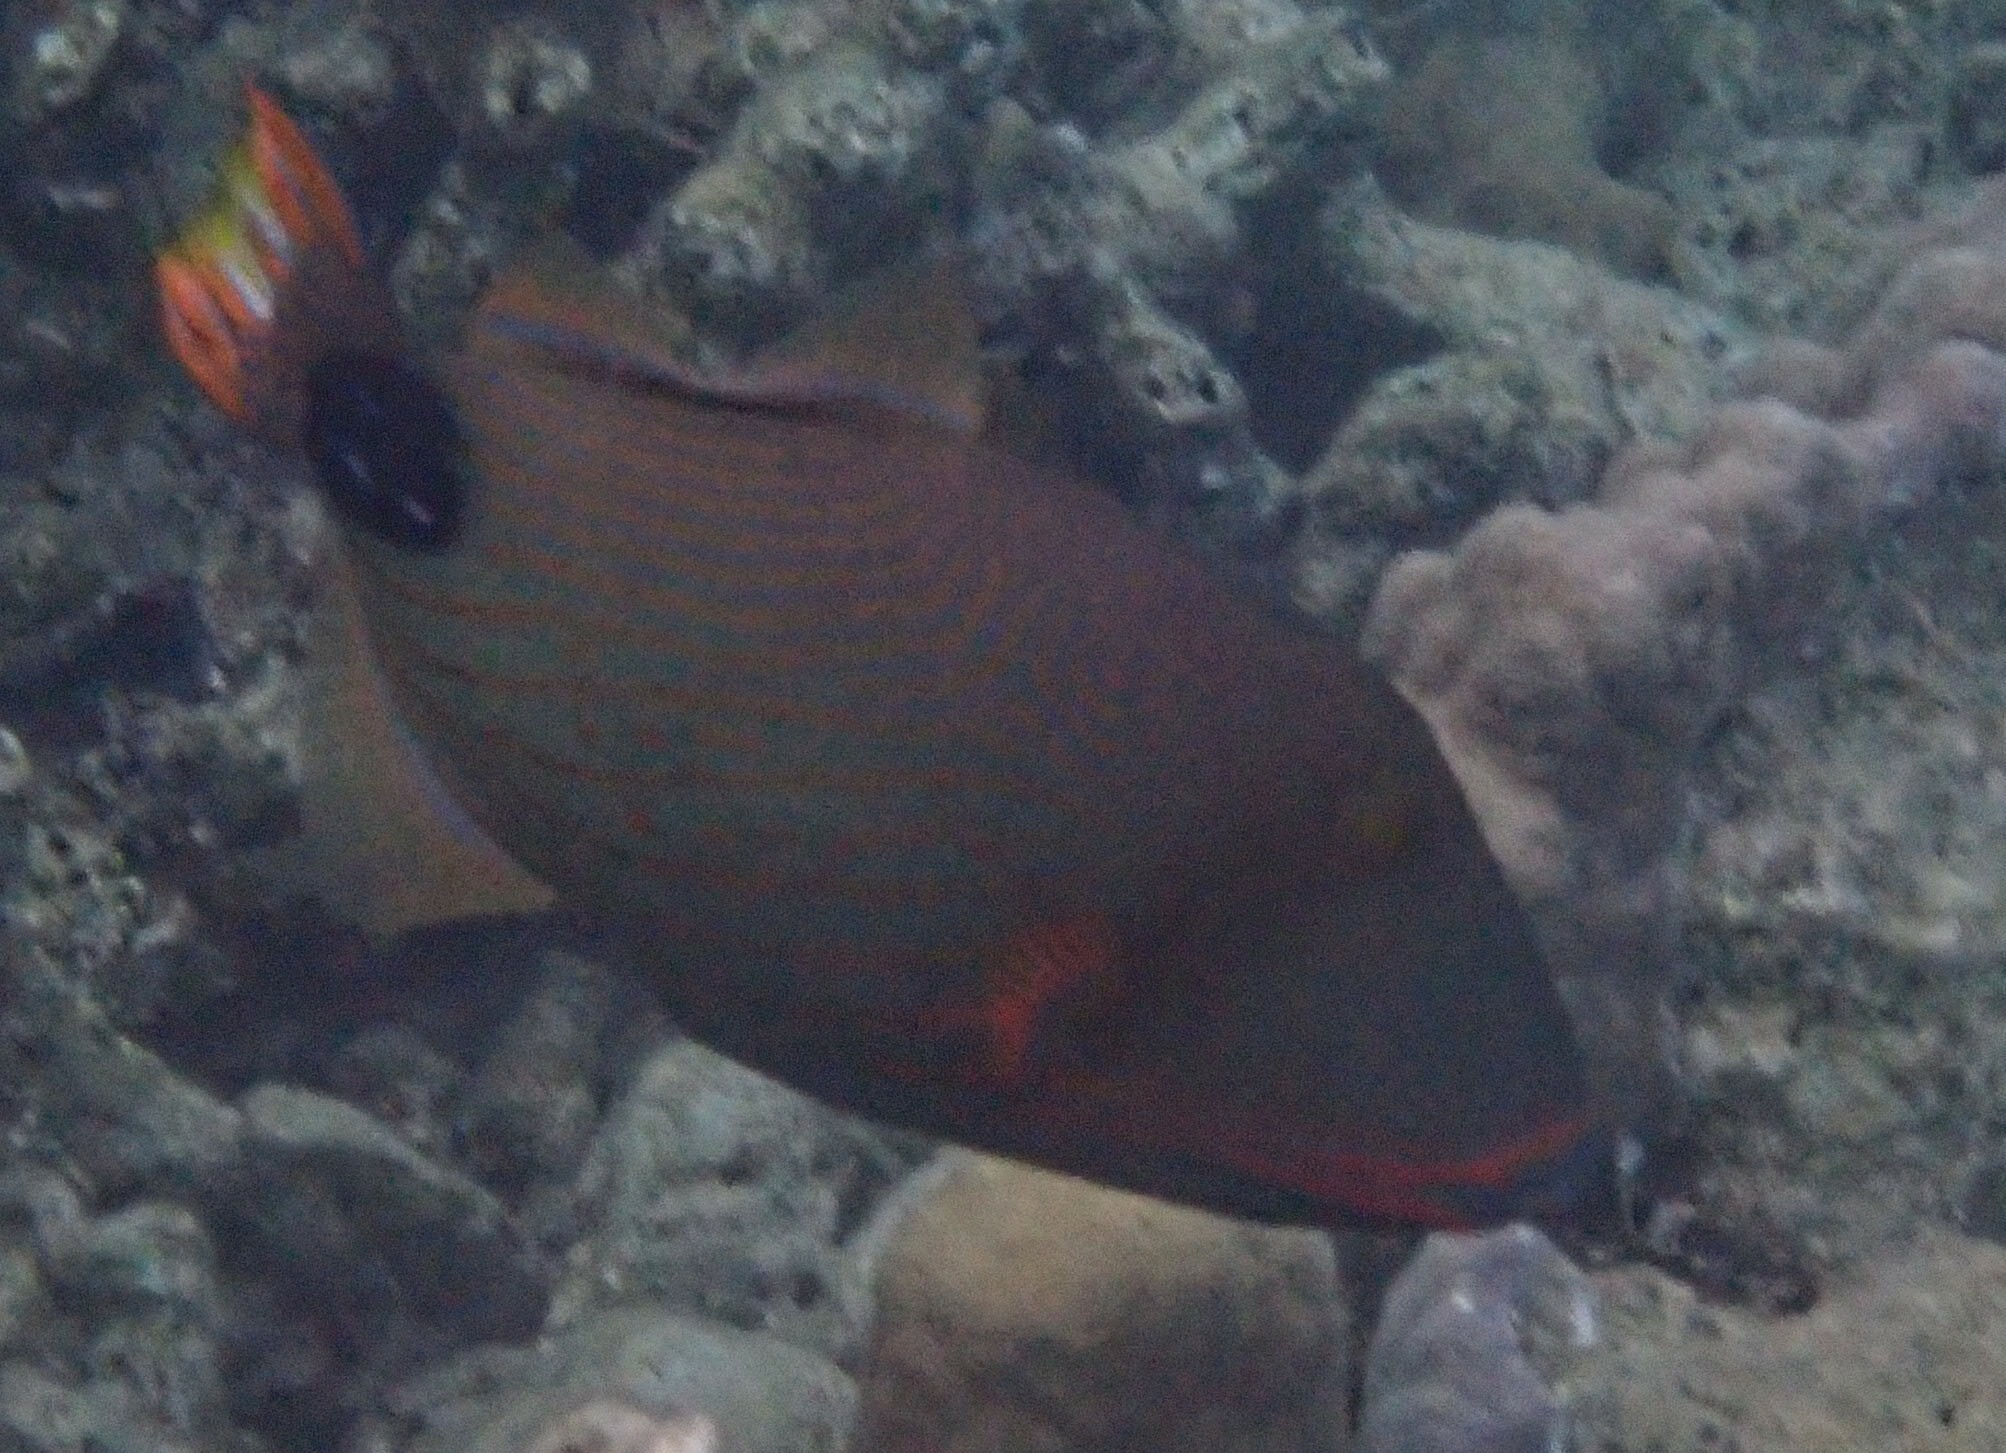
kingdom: Animalia
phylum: Chordata
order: Tetraodontiformes
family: Balistidae
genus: Balistapus
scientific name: Balistapus undulatus
